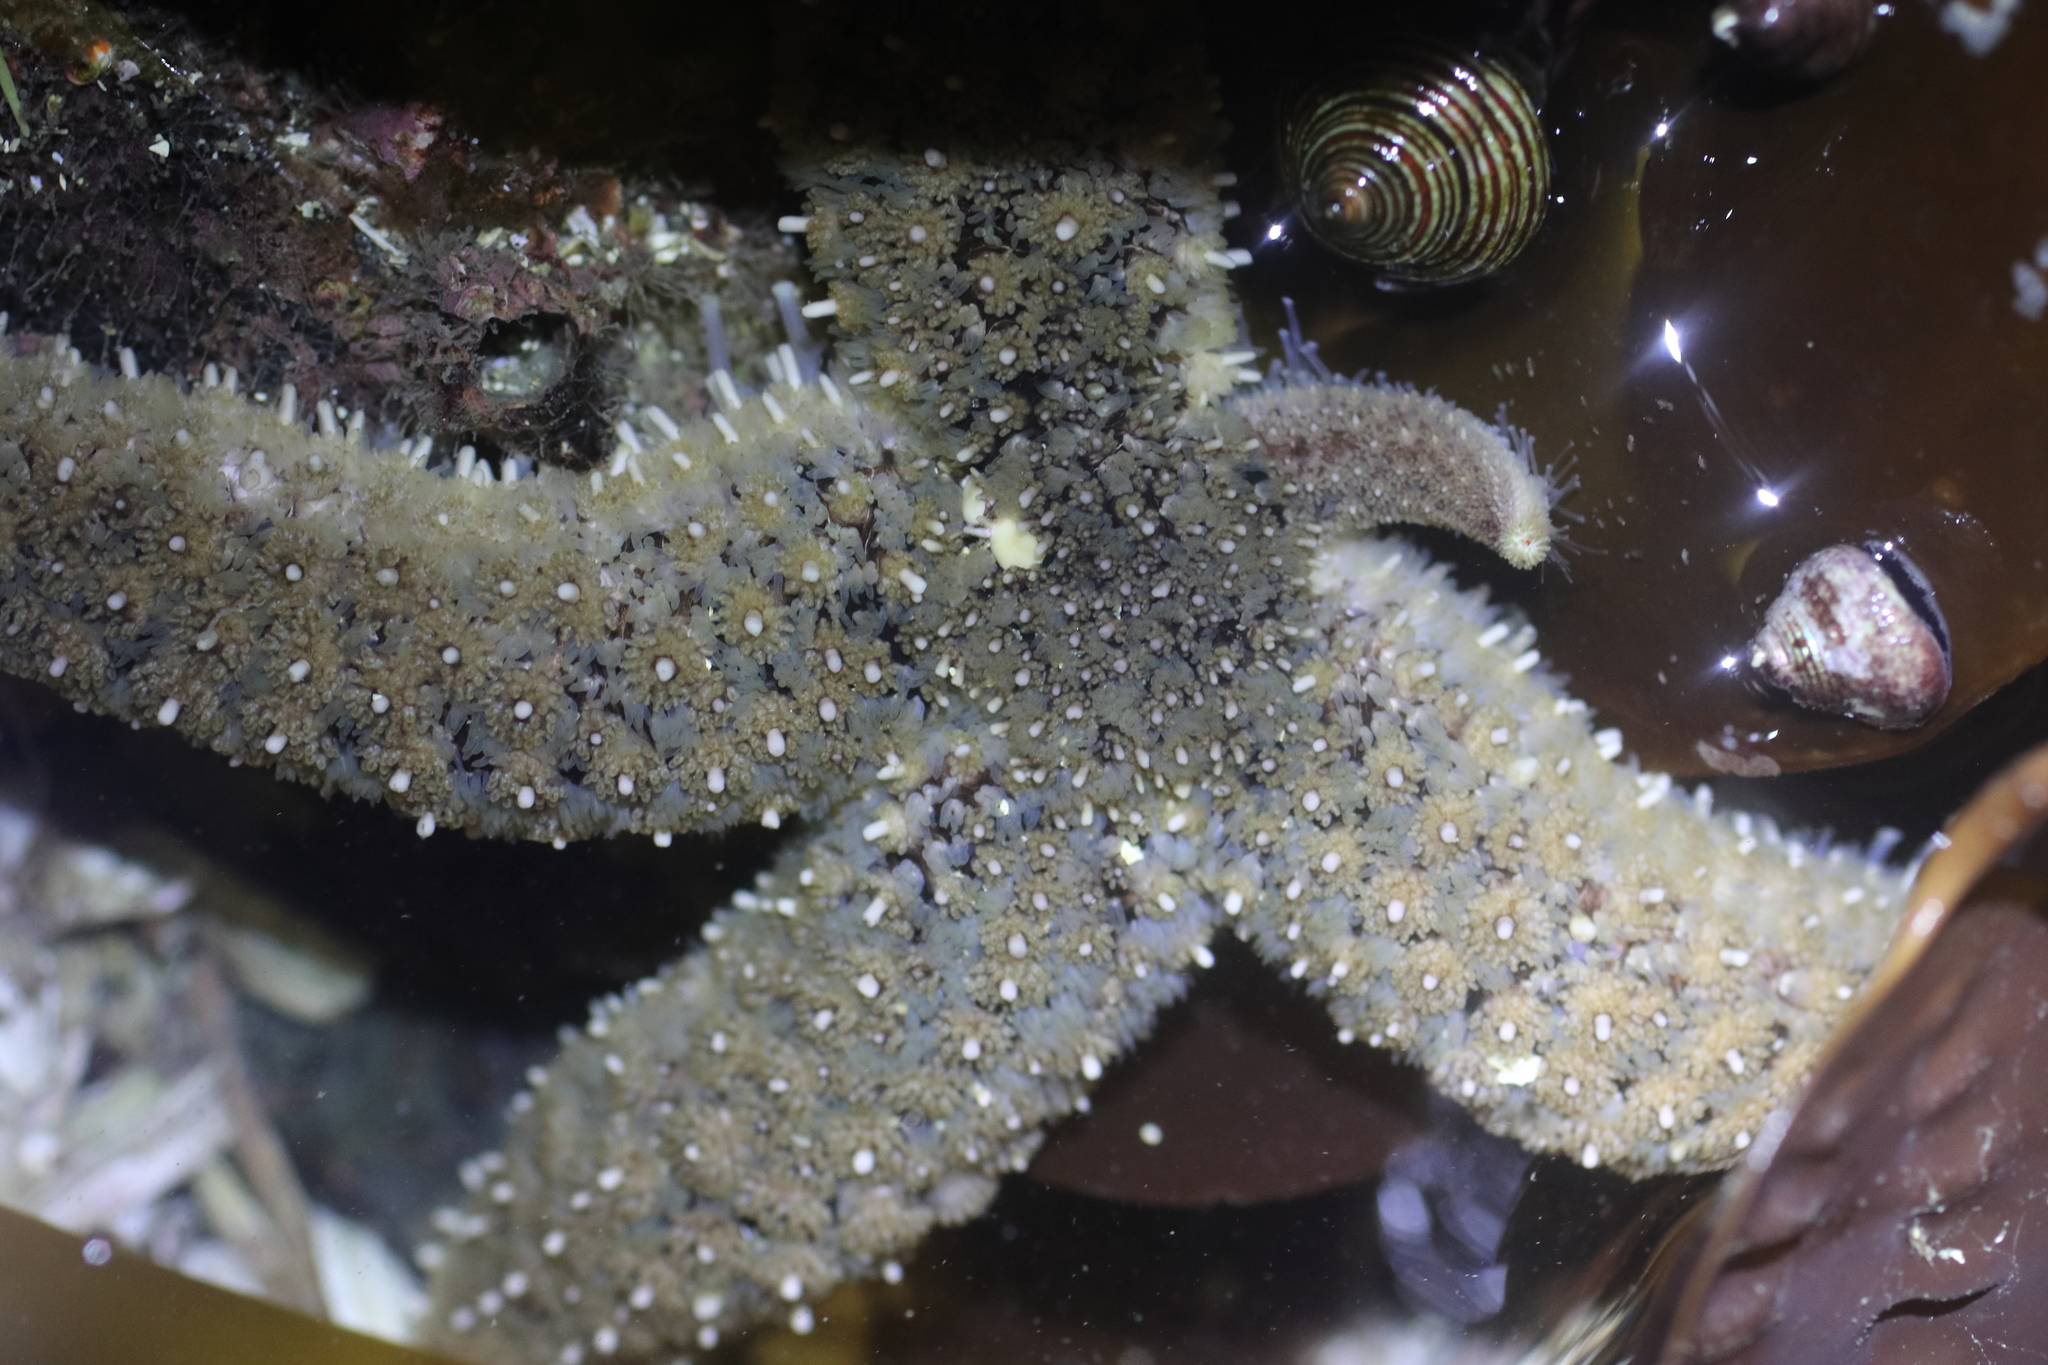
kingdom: Animalia
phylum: Echinodermata
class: Asteroidea
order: Forcipulatida
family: Asteriidae
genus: Stylasterias
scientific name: Stylasterias forreri
